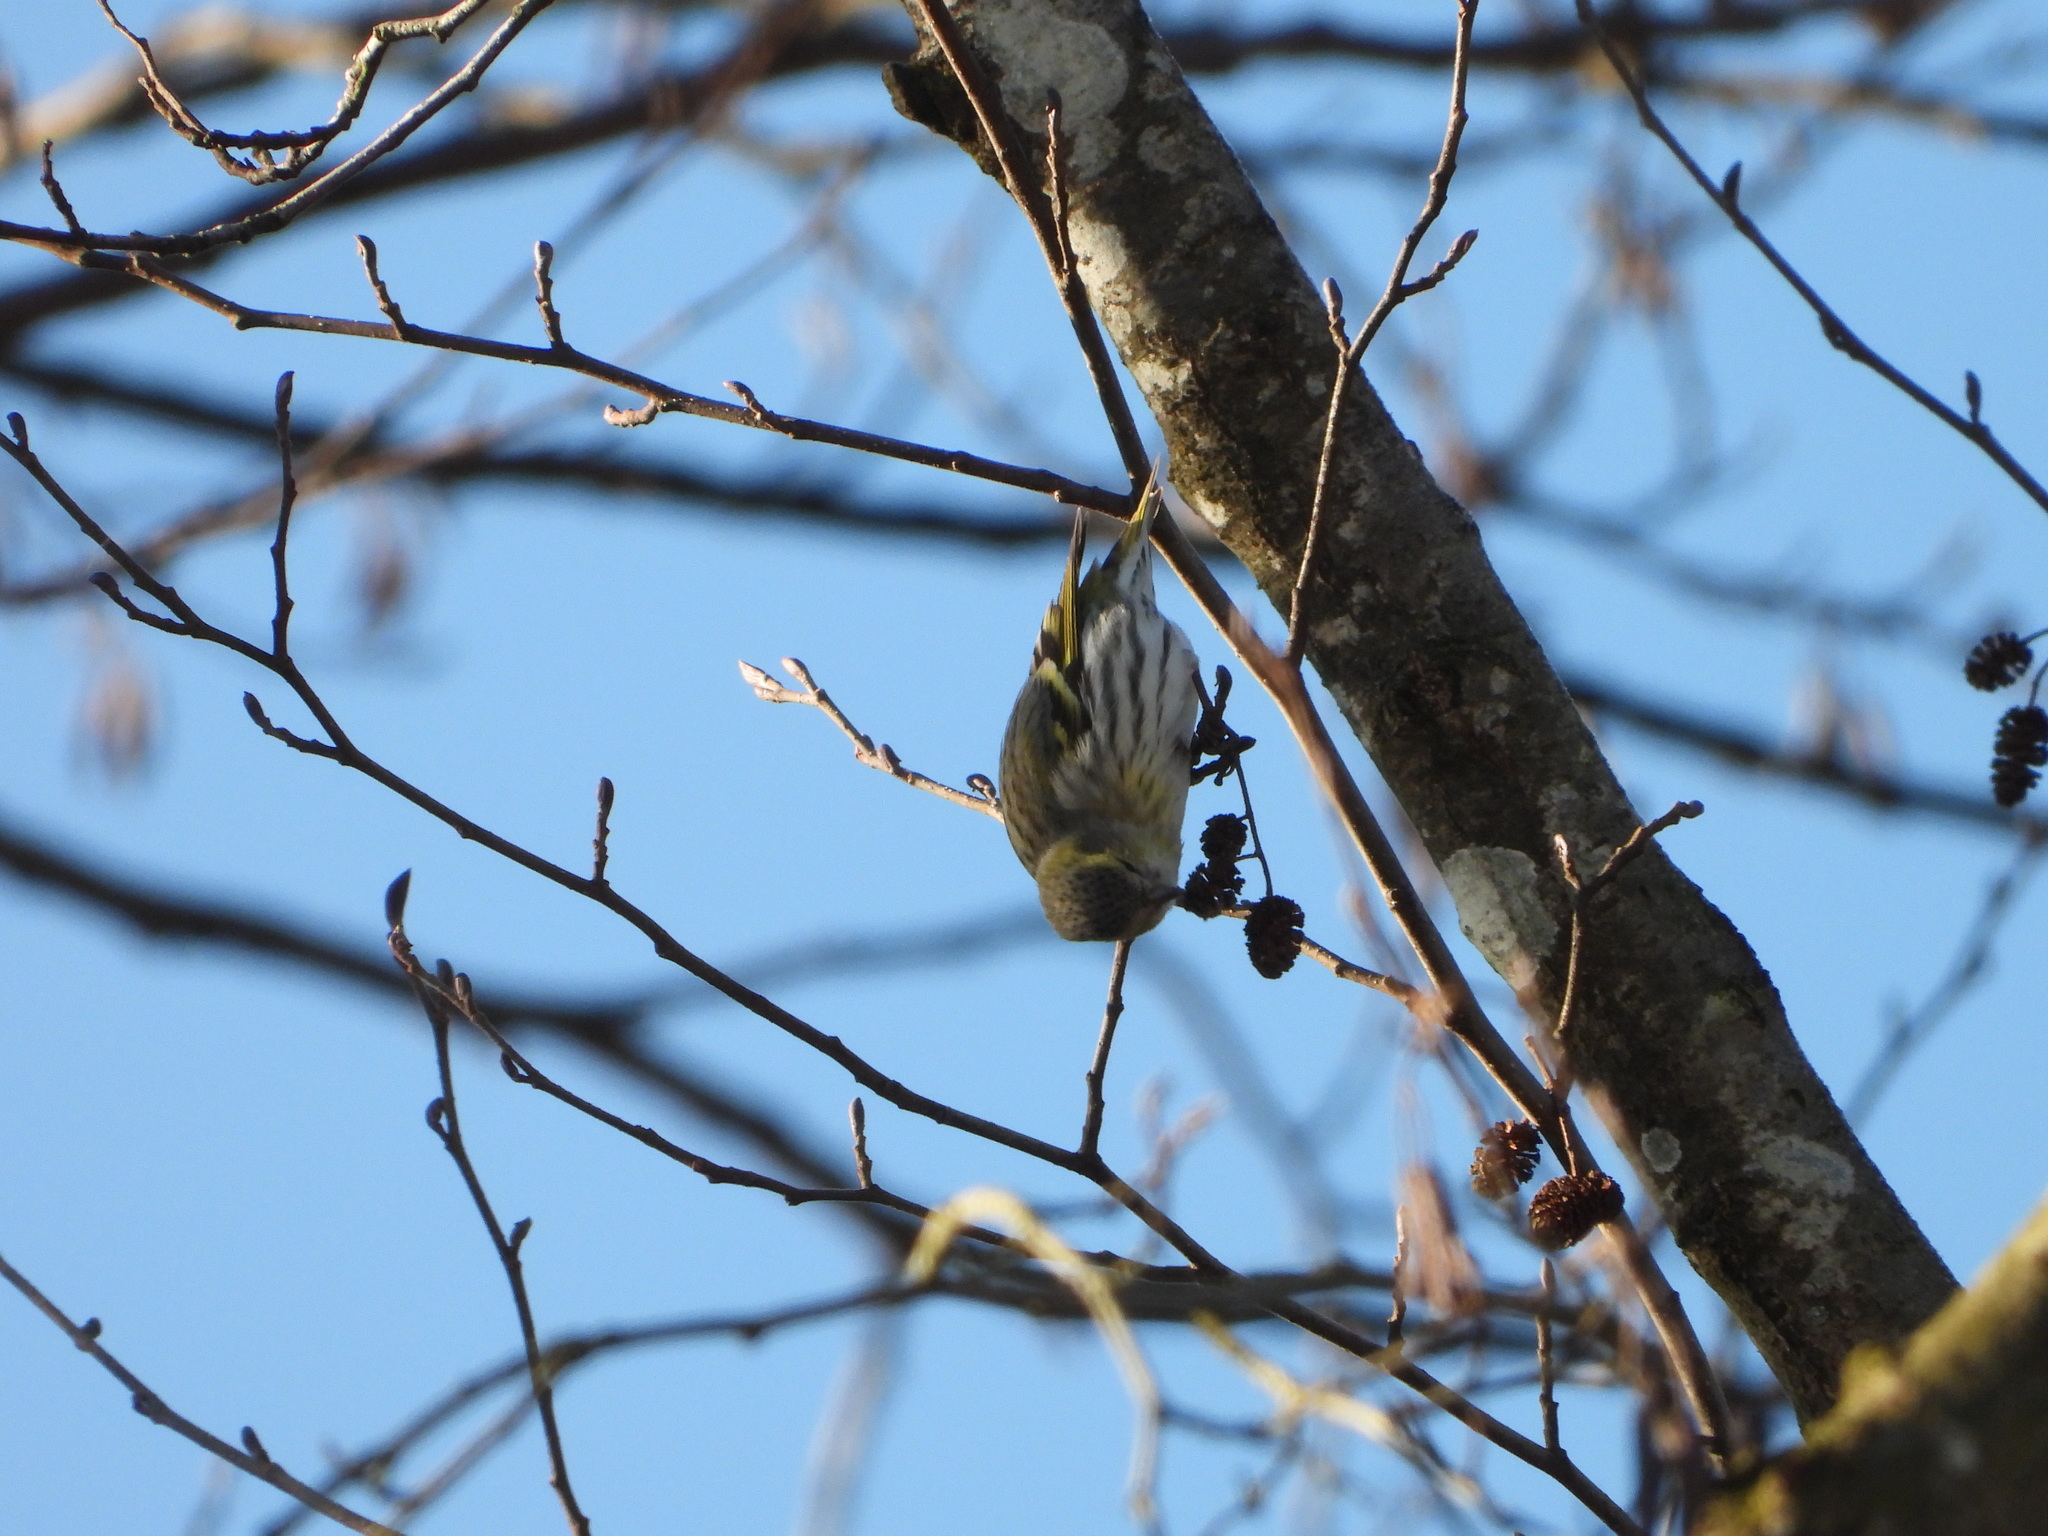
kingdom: Animalia
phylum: Chordata
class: Aves
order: Passeriformes
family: Fringillidae
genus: Spinus
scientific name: Spinus spinus
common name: Eurasian siskin
